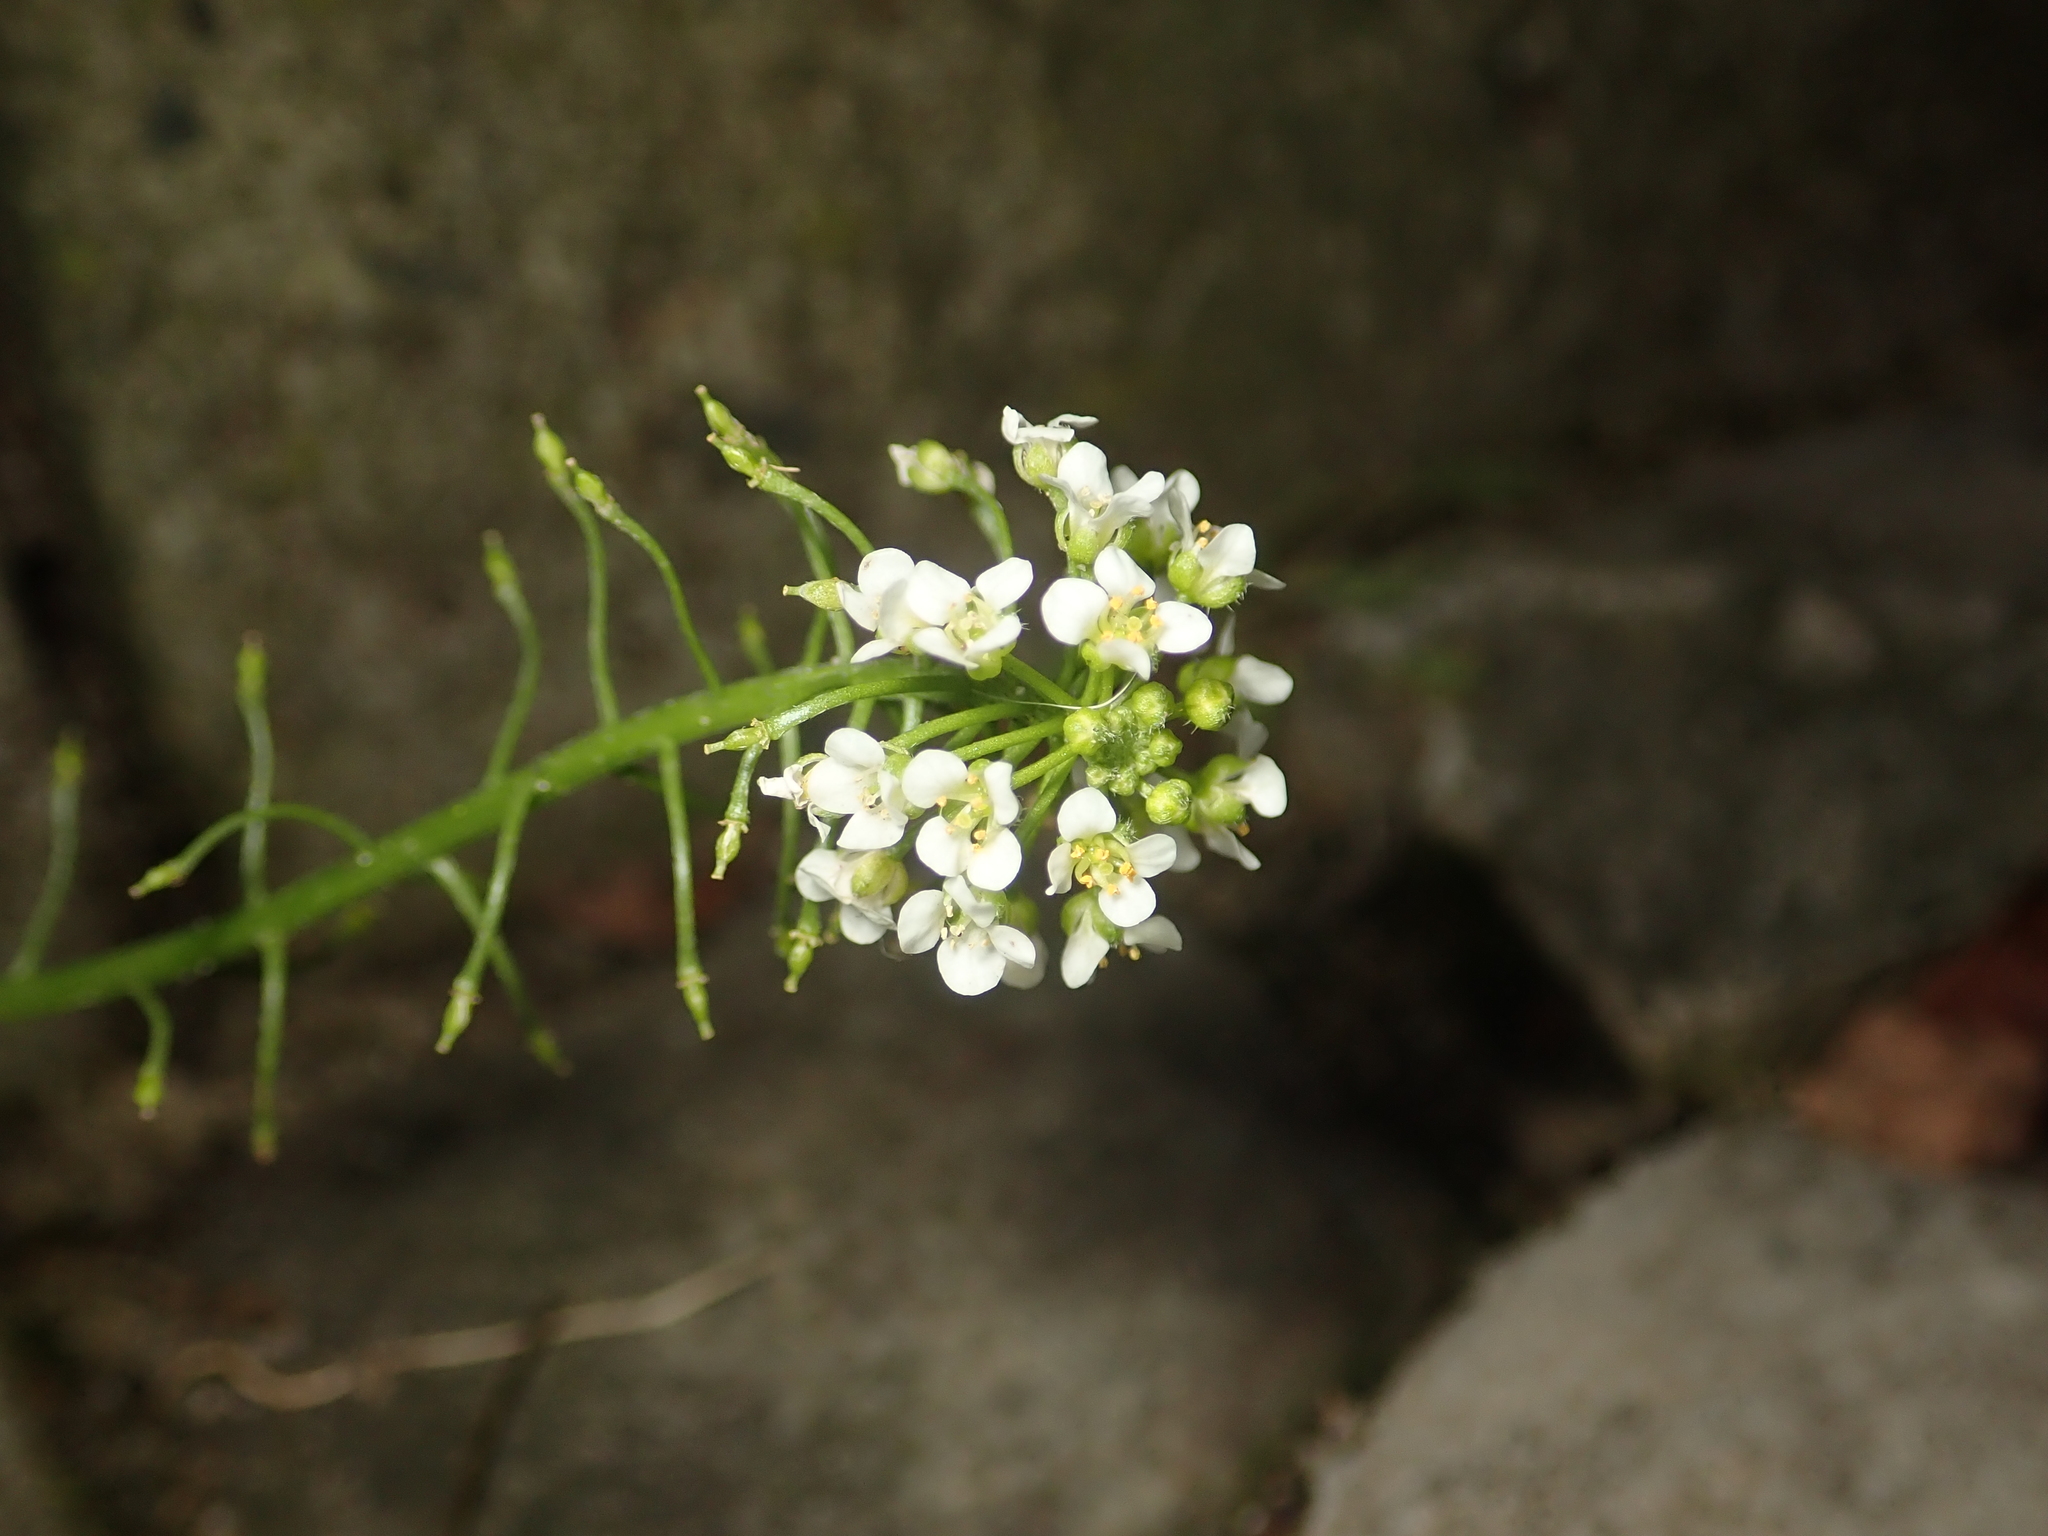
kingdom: Plantae
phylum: Tracheophyta
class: Magnoliopsida
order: Brassicales
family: Brassicaceae
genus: Capsella
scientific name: Capsella bursa-pastoris
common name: Shepherd's purse
